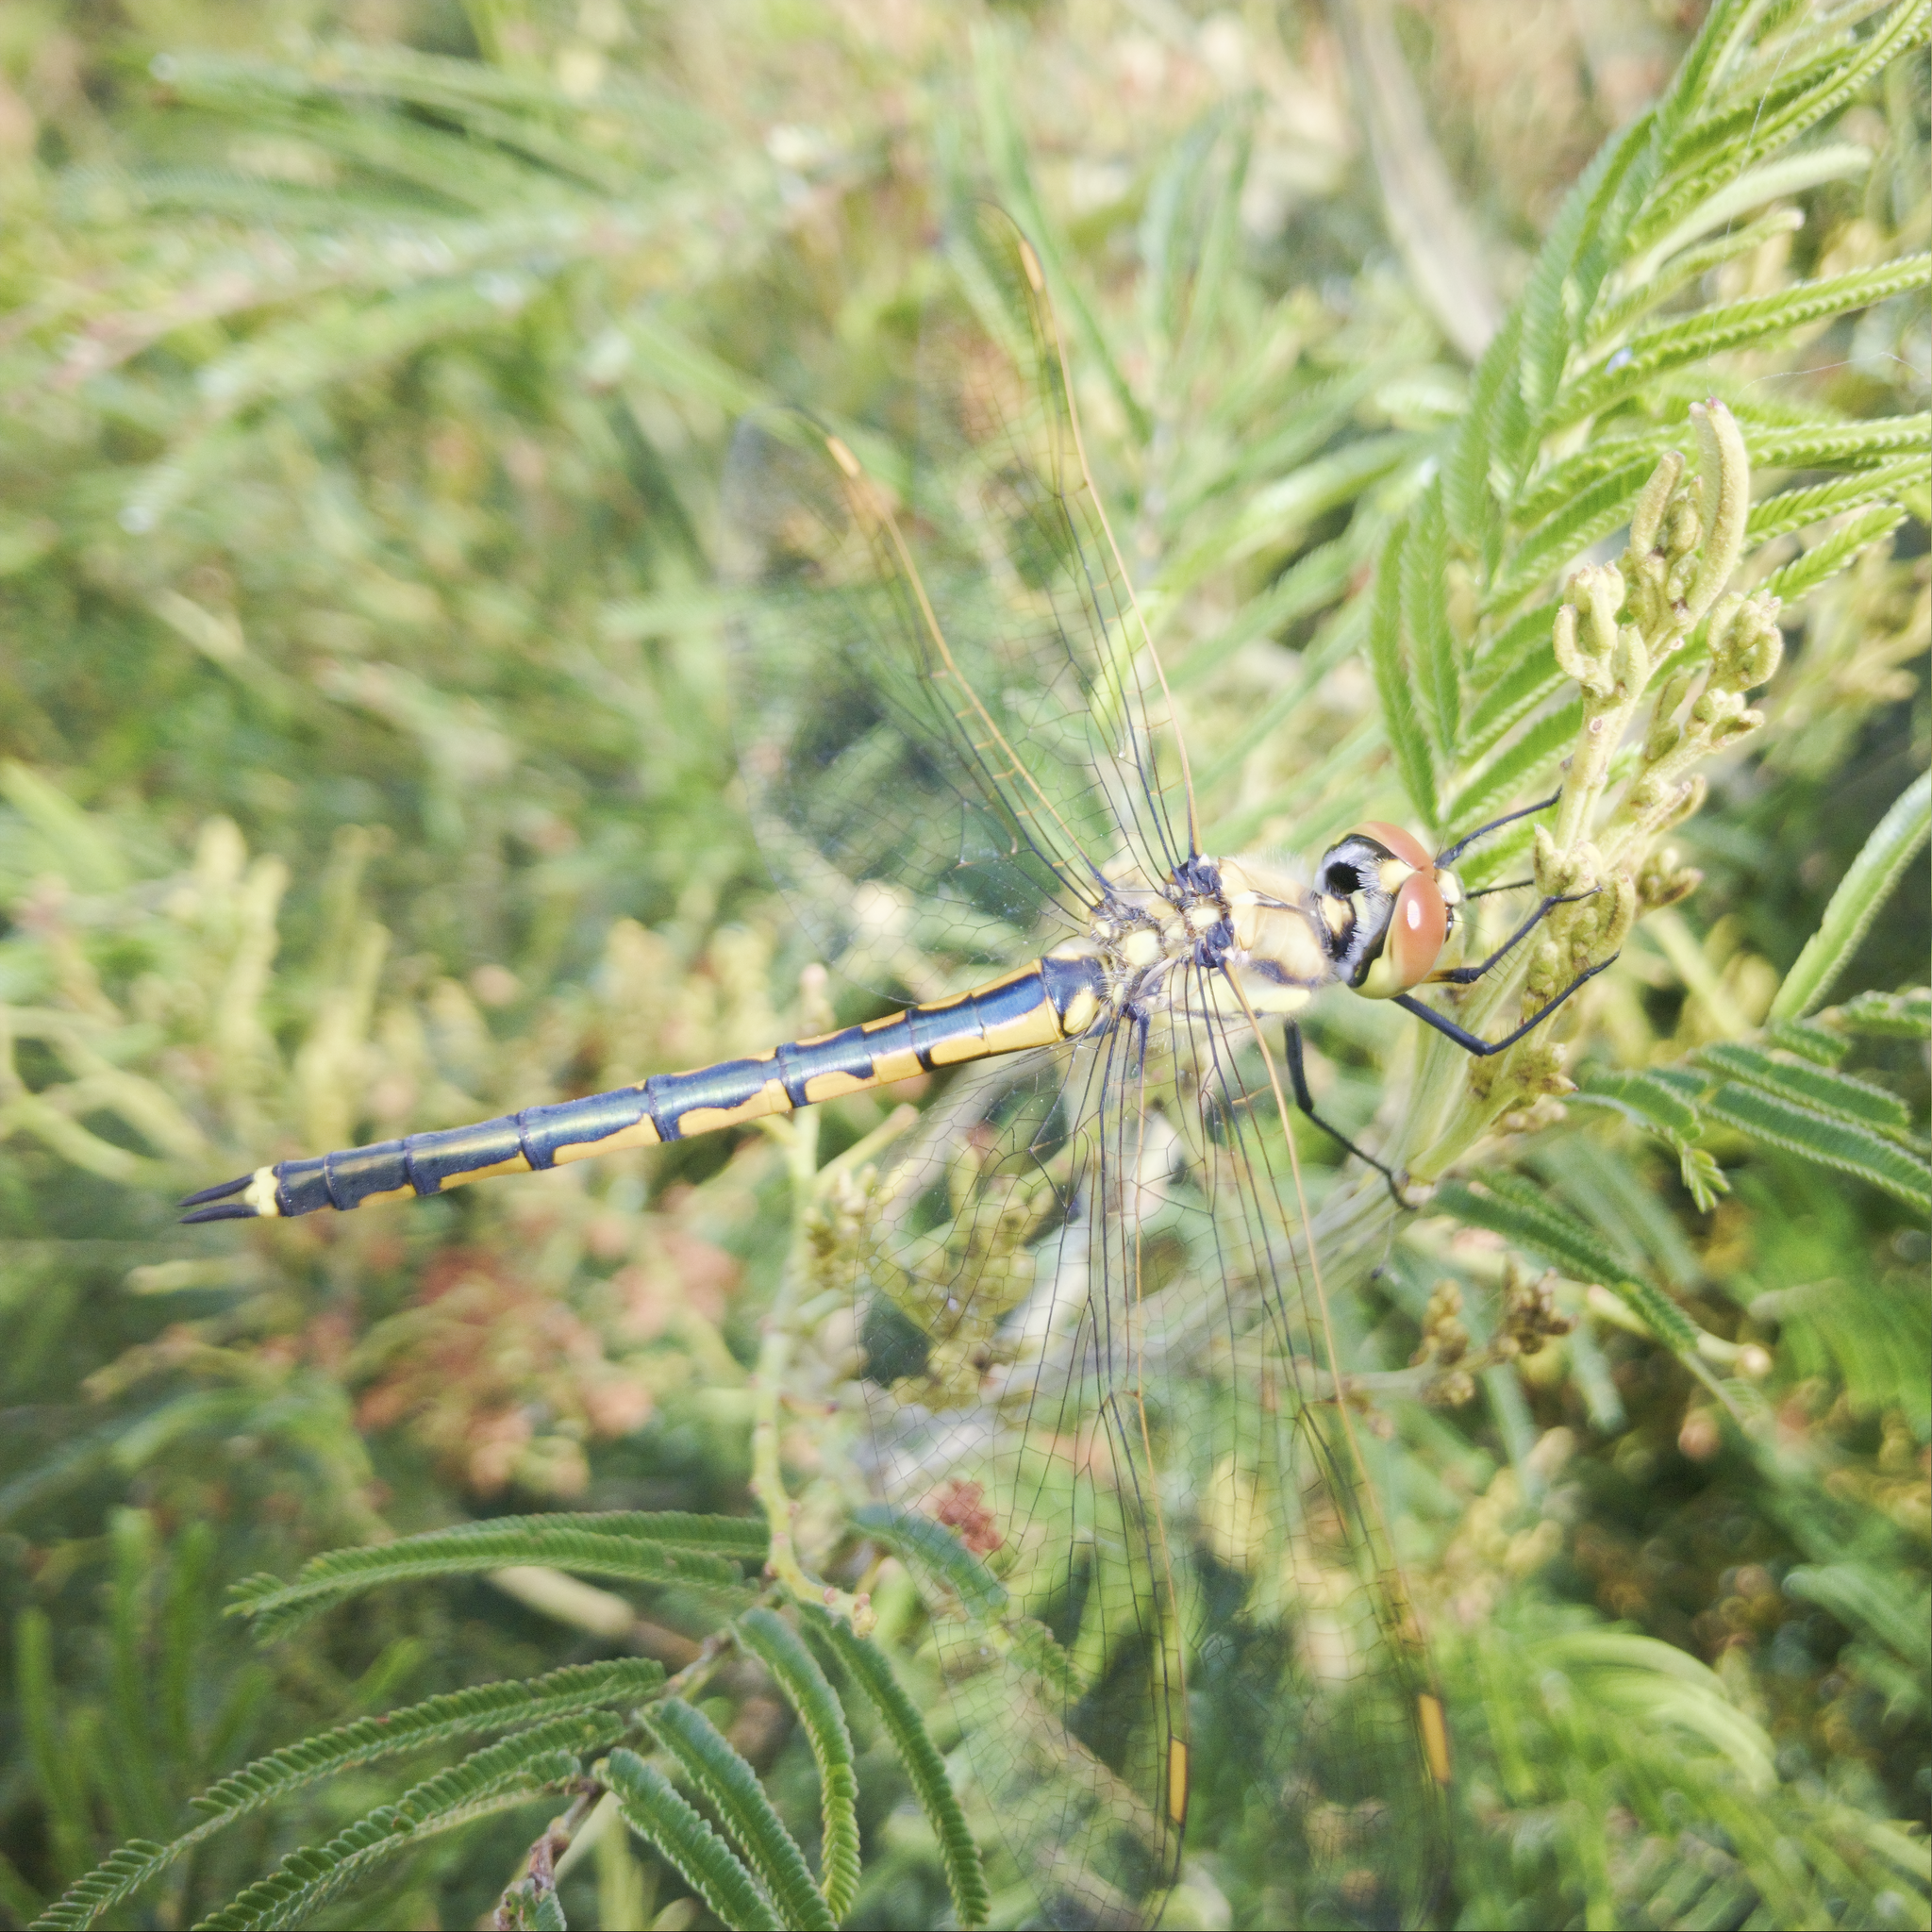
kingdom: Animalia
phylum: Arthropoda
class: Insecta
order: Odonata
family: Corduliidae
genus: Hemicordulia
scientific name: Hemicordulia tau
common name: Tau emerald
